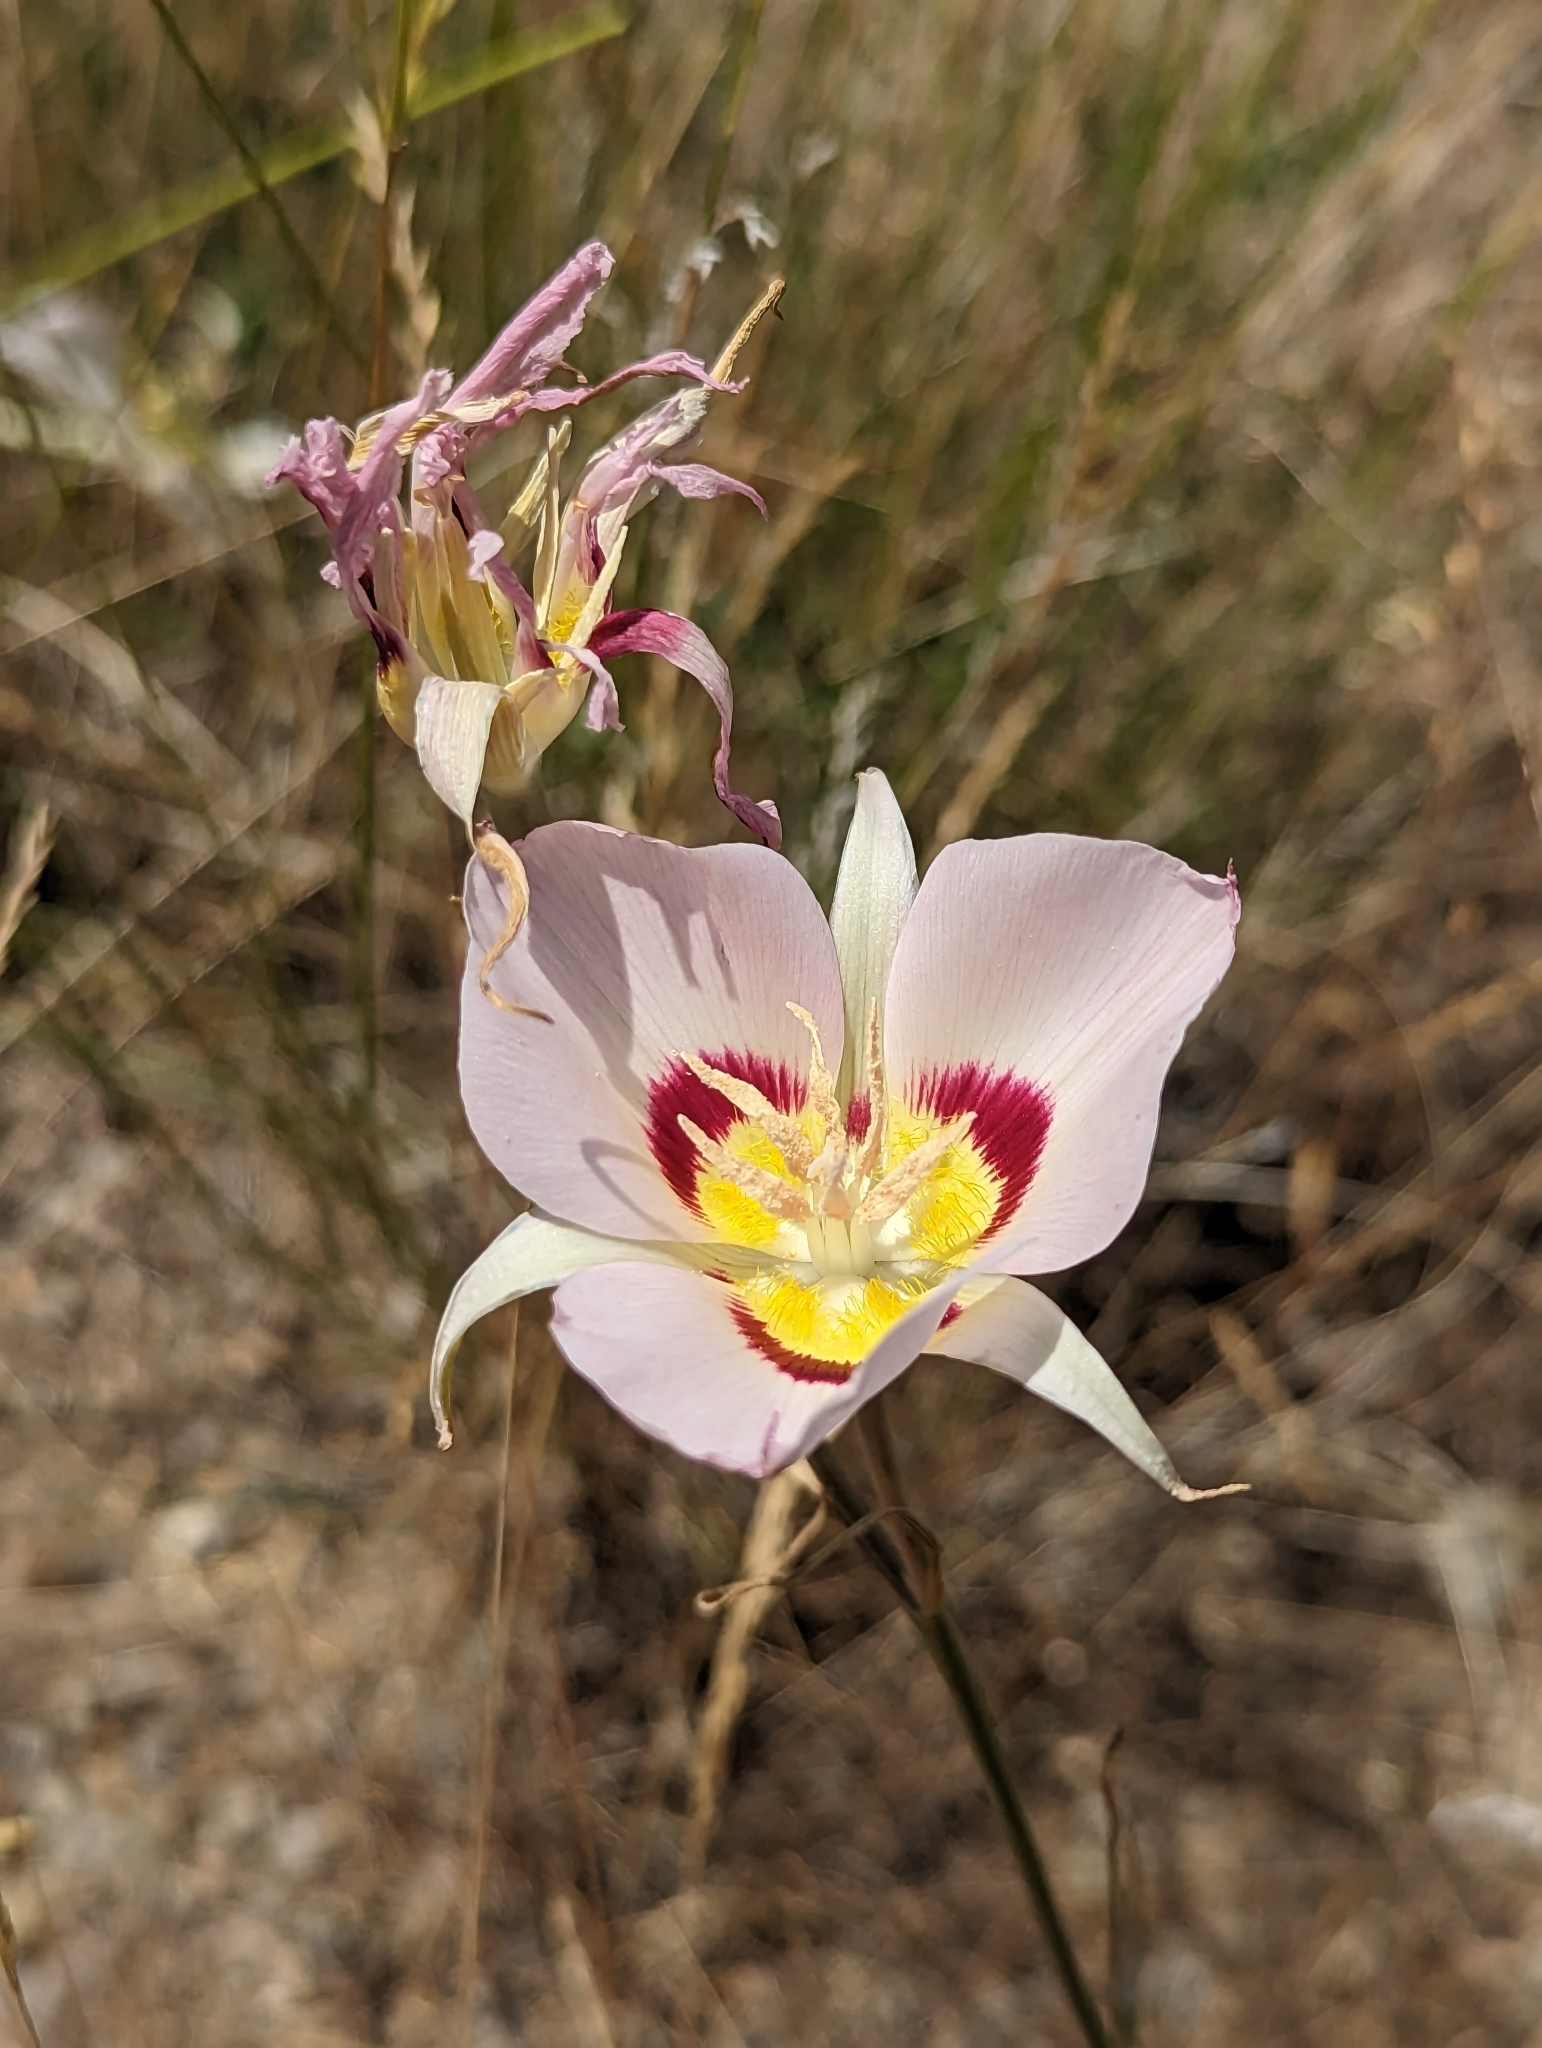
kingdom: Plantae
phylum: Tracheophyta
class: Liliopsida
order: Liliales
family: Liliaceae
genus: Calochortus
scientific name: Calochortus macrocarpus
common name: Green-band mariposa lily
